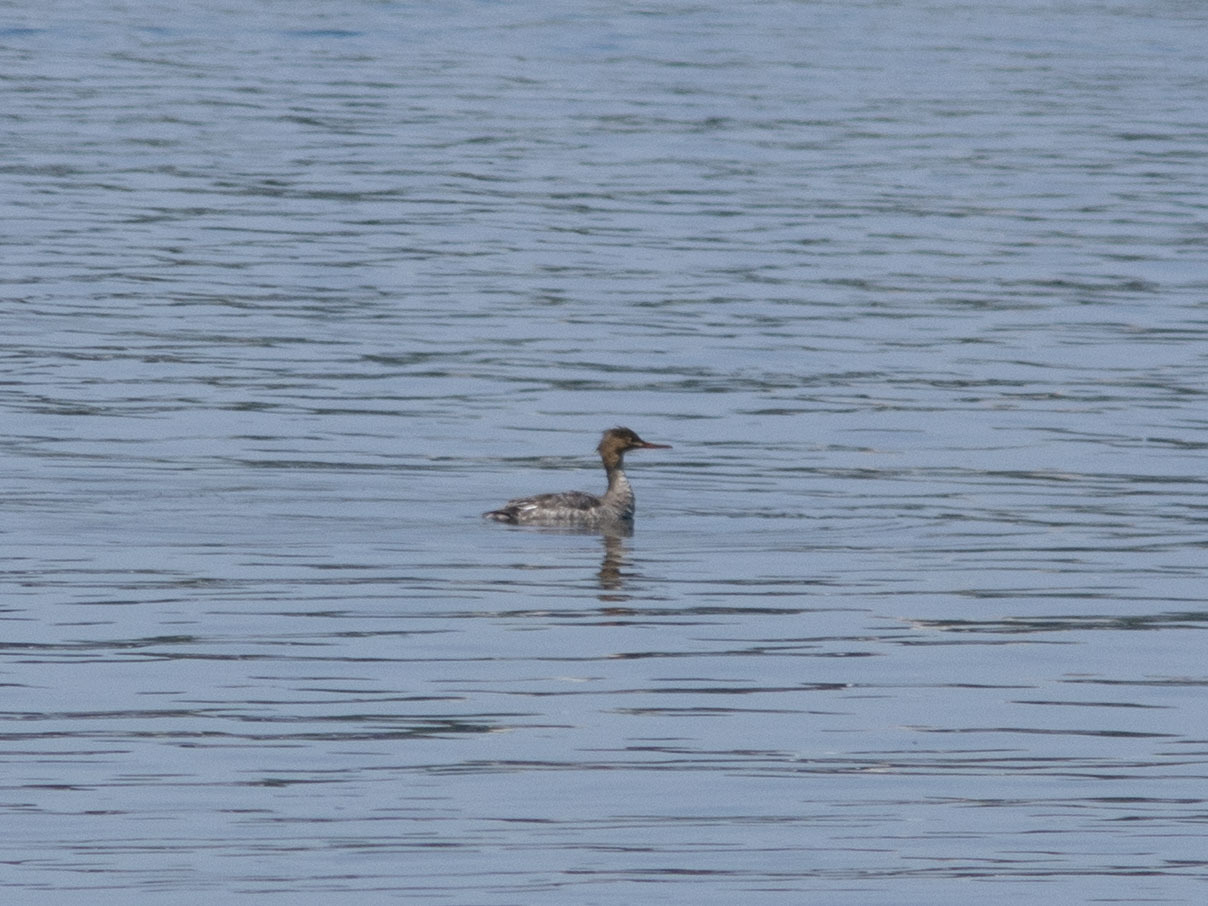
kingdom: Animalia
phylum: Chordata
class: Aves
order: Anseriformes
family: Anatidae
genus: Mergus
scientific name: Mergus serrator
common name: Red-breasted merganser
